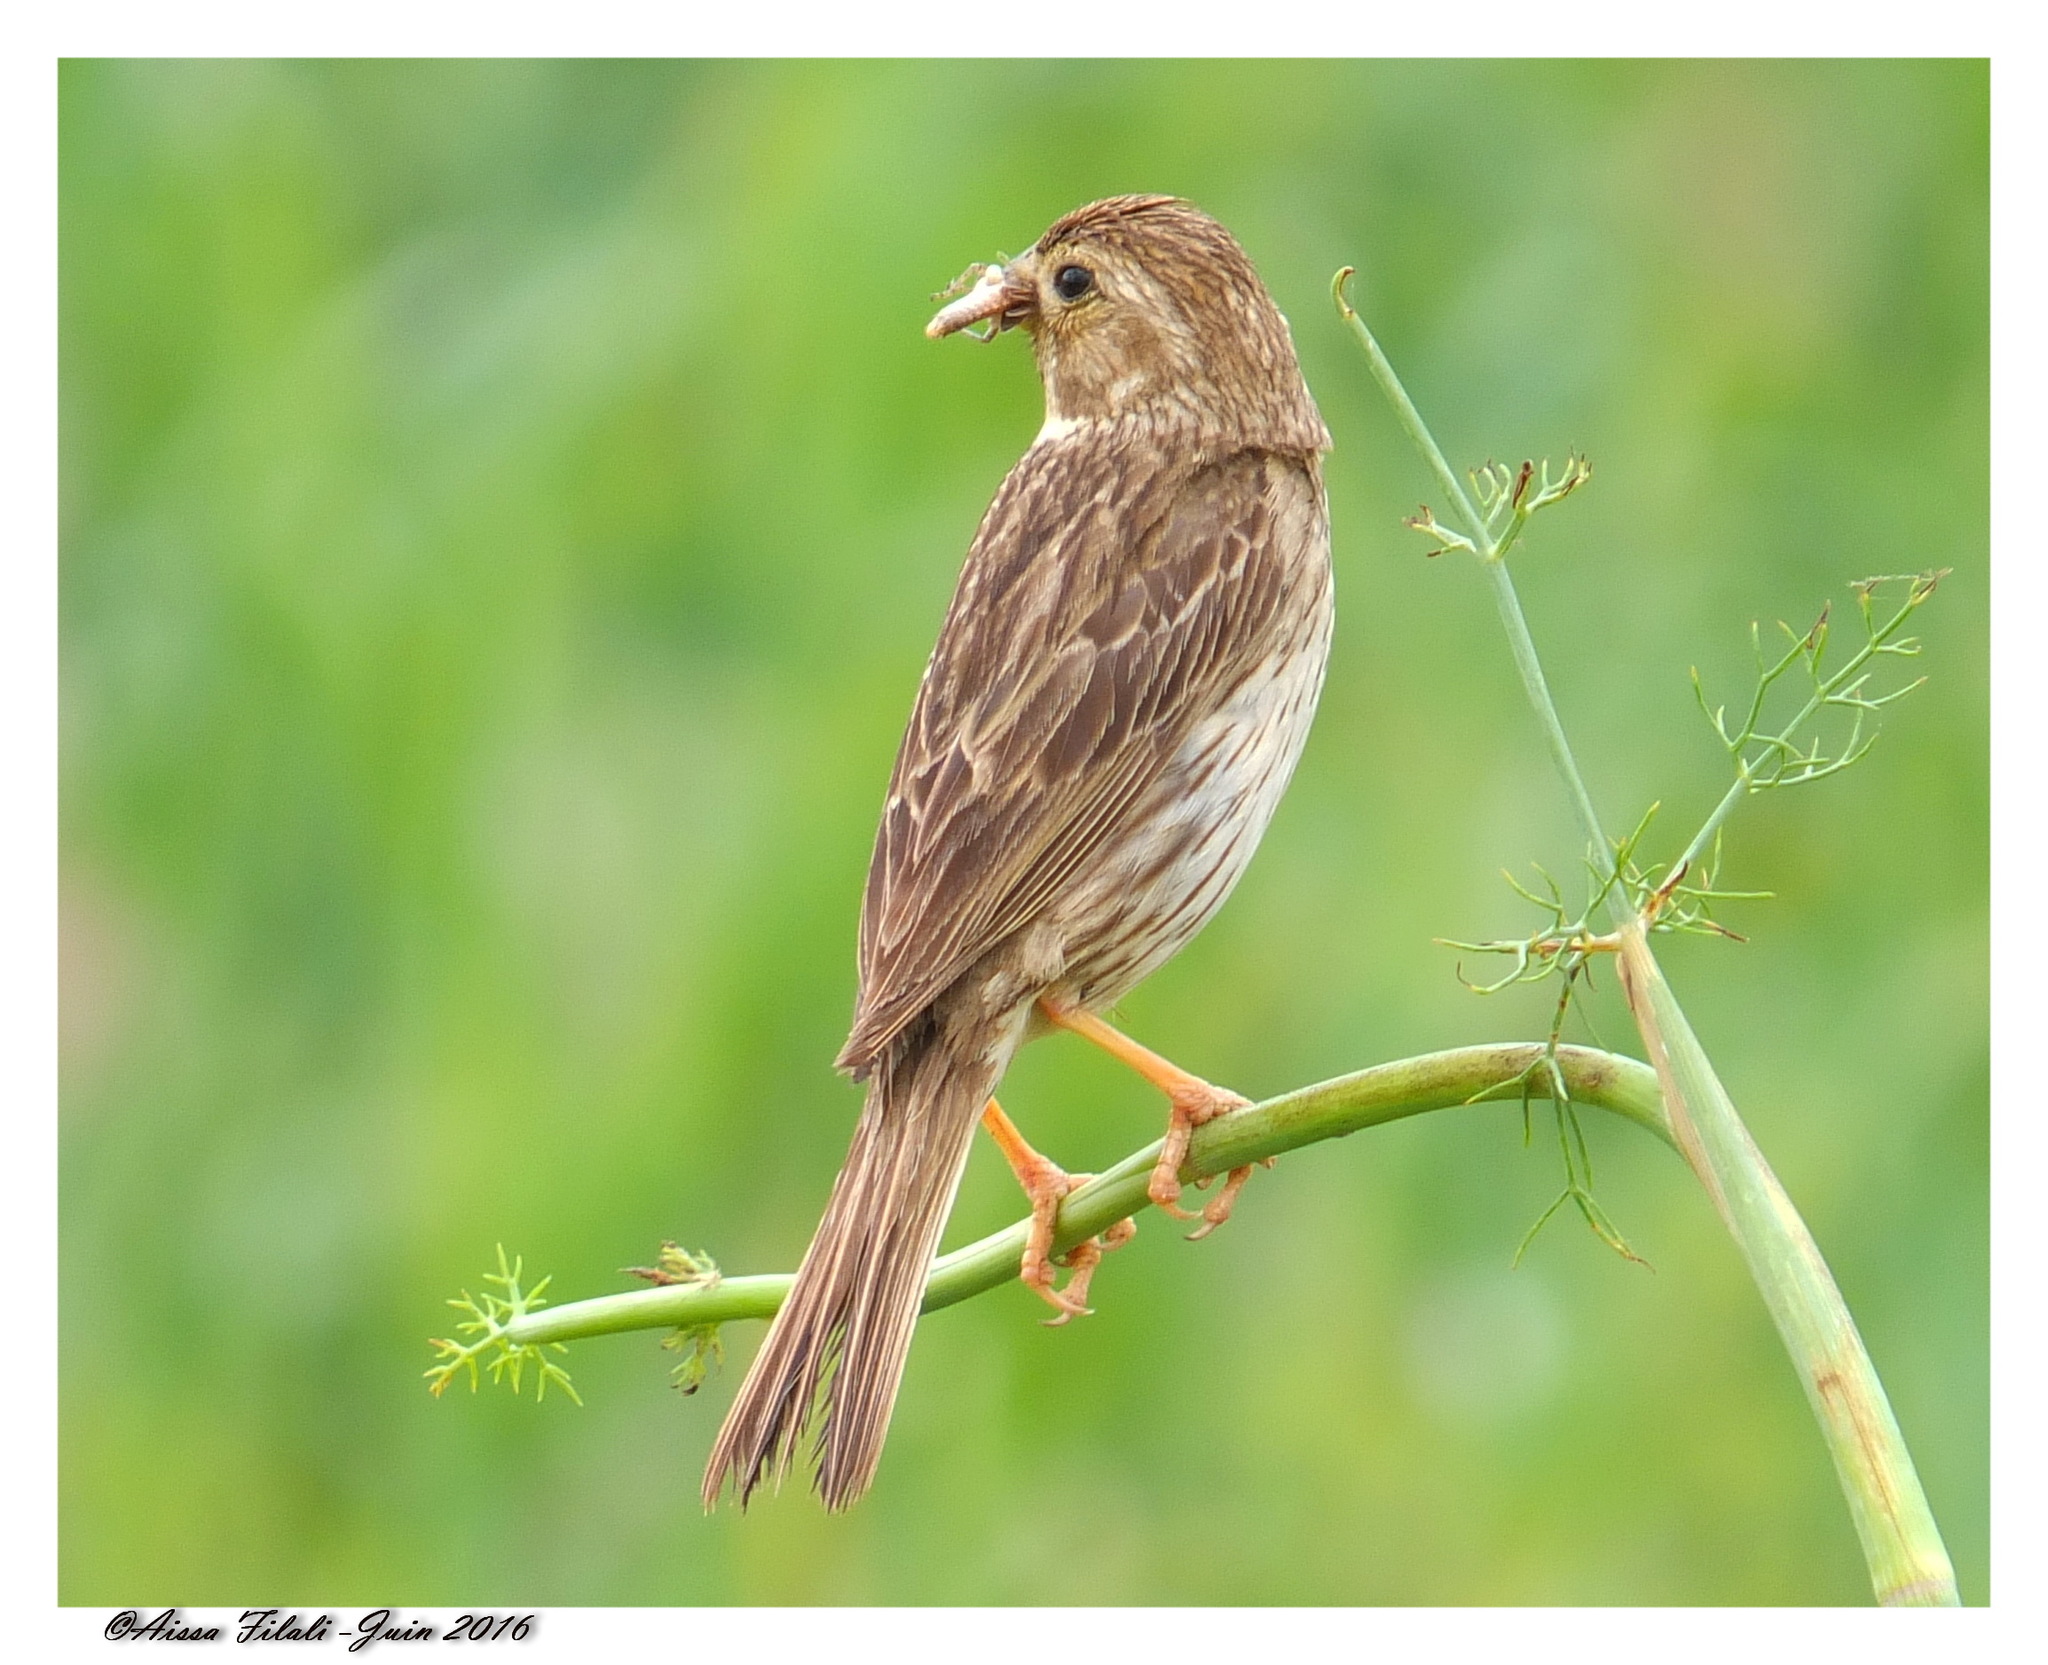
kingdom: Animalia
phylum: Chordata
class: Aves
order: Passeriformes
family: Emberizidae
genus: Emberiza
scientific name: Emberiza calandra
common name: Corn bunting
